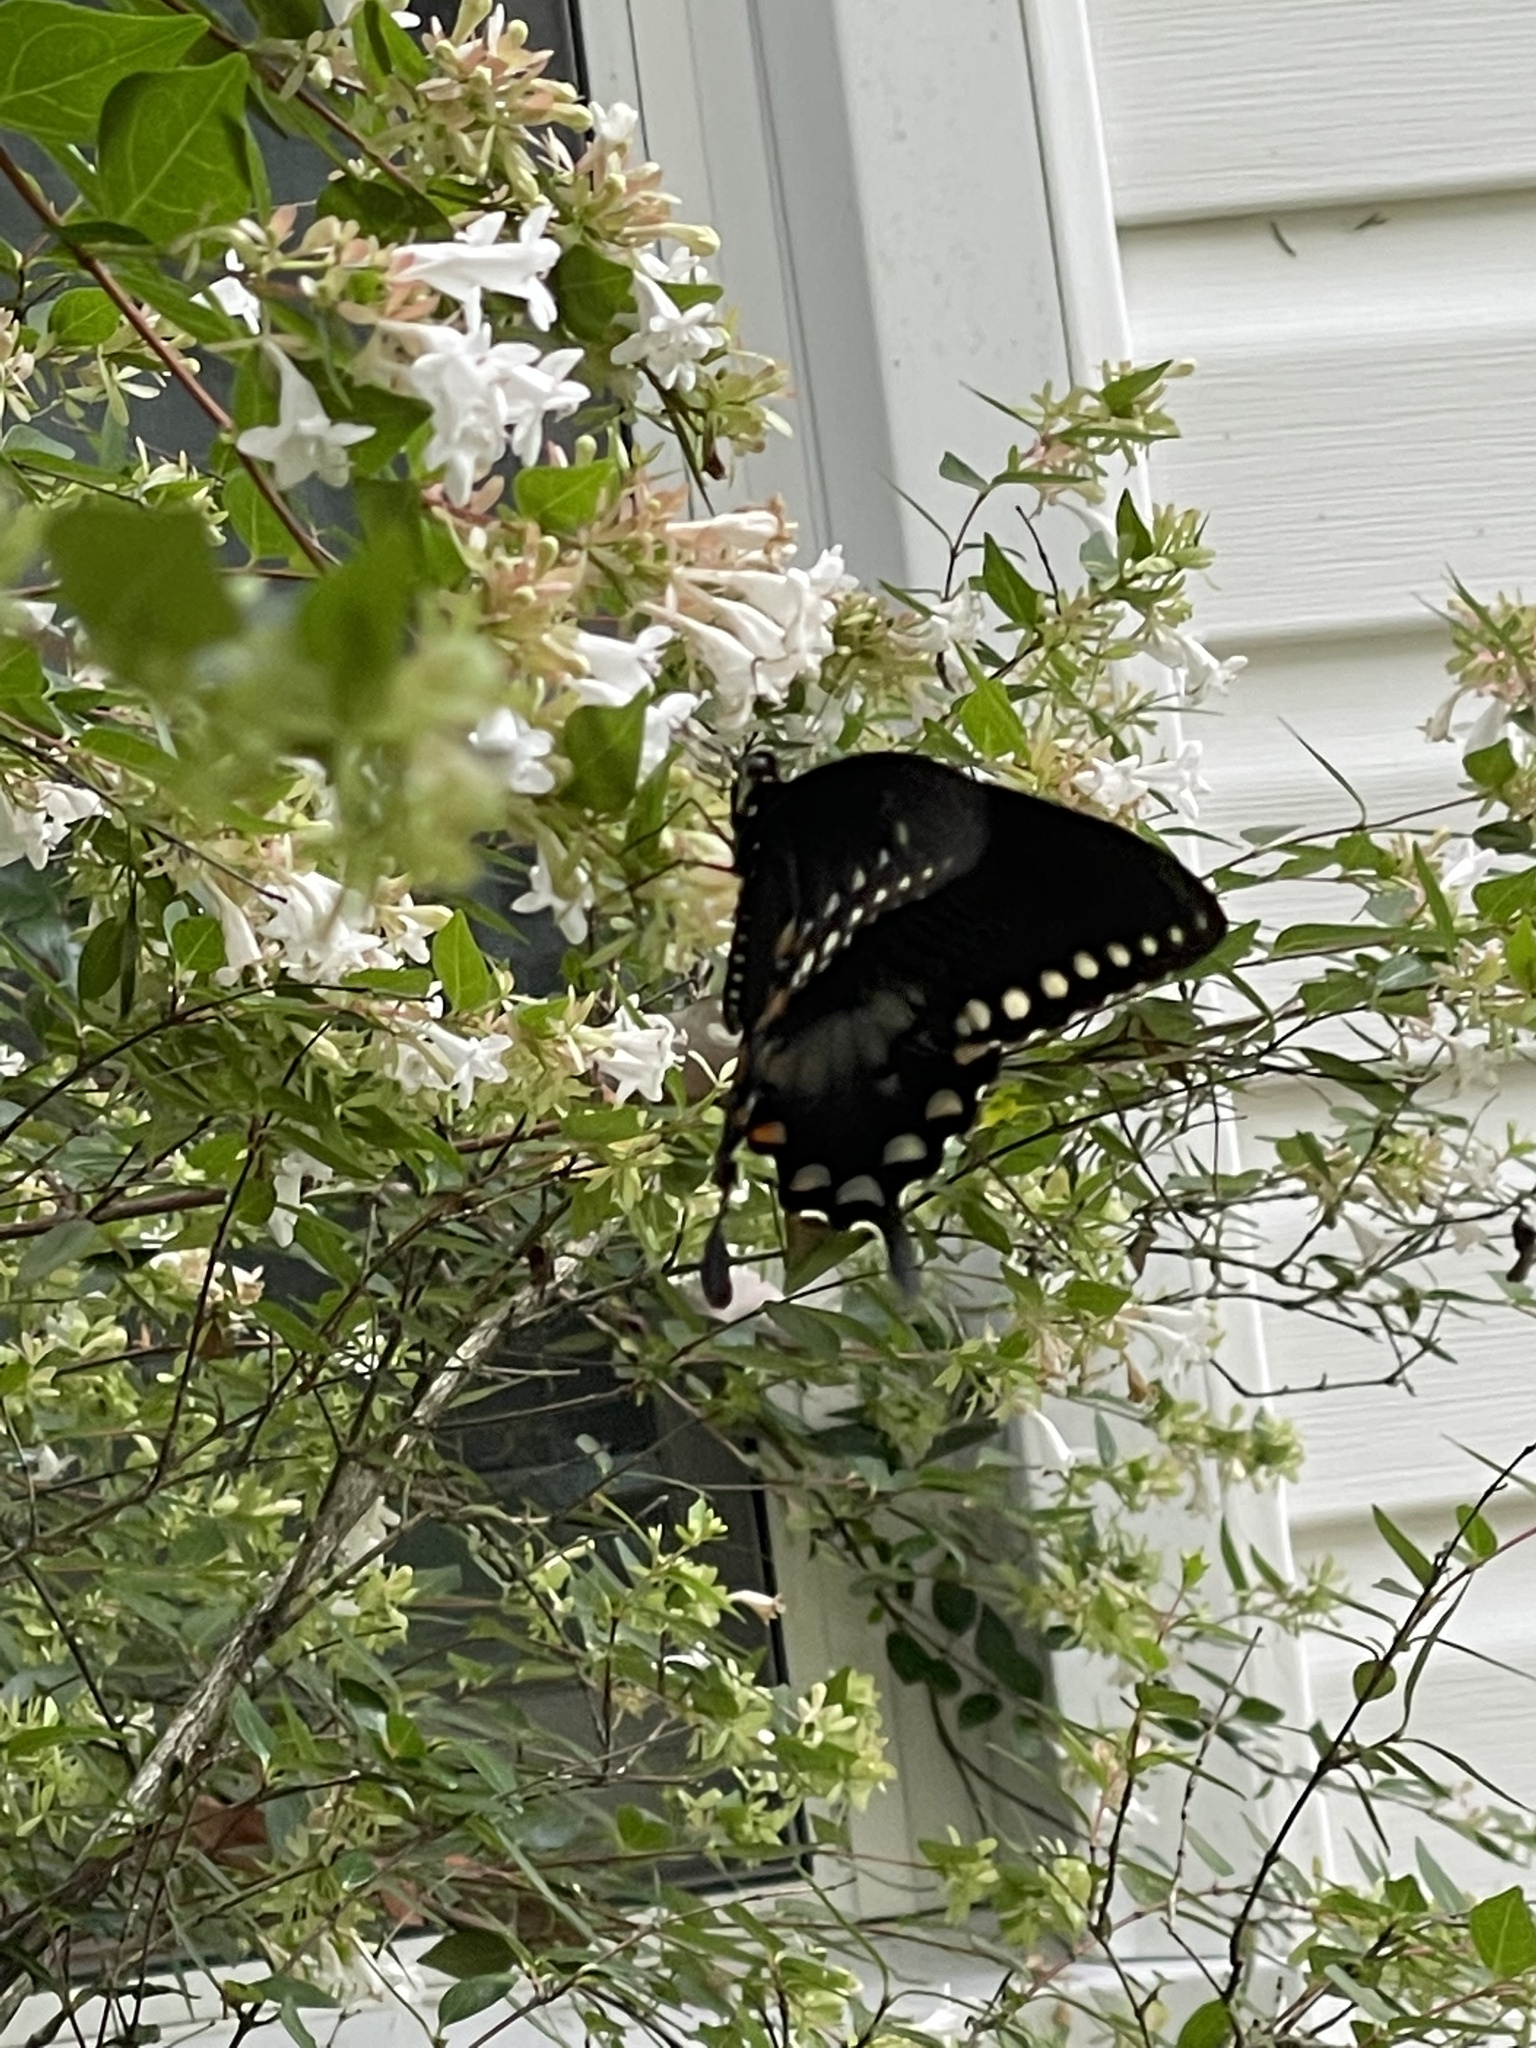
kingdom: Animalia
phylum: Arthropoda
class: Insecta
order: Lepidoptera
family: Papilionidae
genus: Papilio
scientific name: Papilio troilus
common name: Spicebush swallowtail
